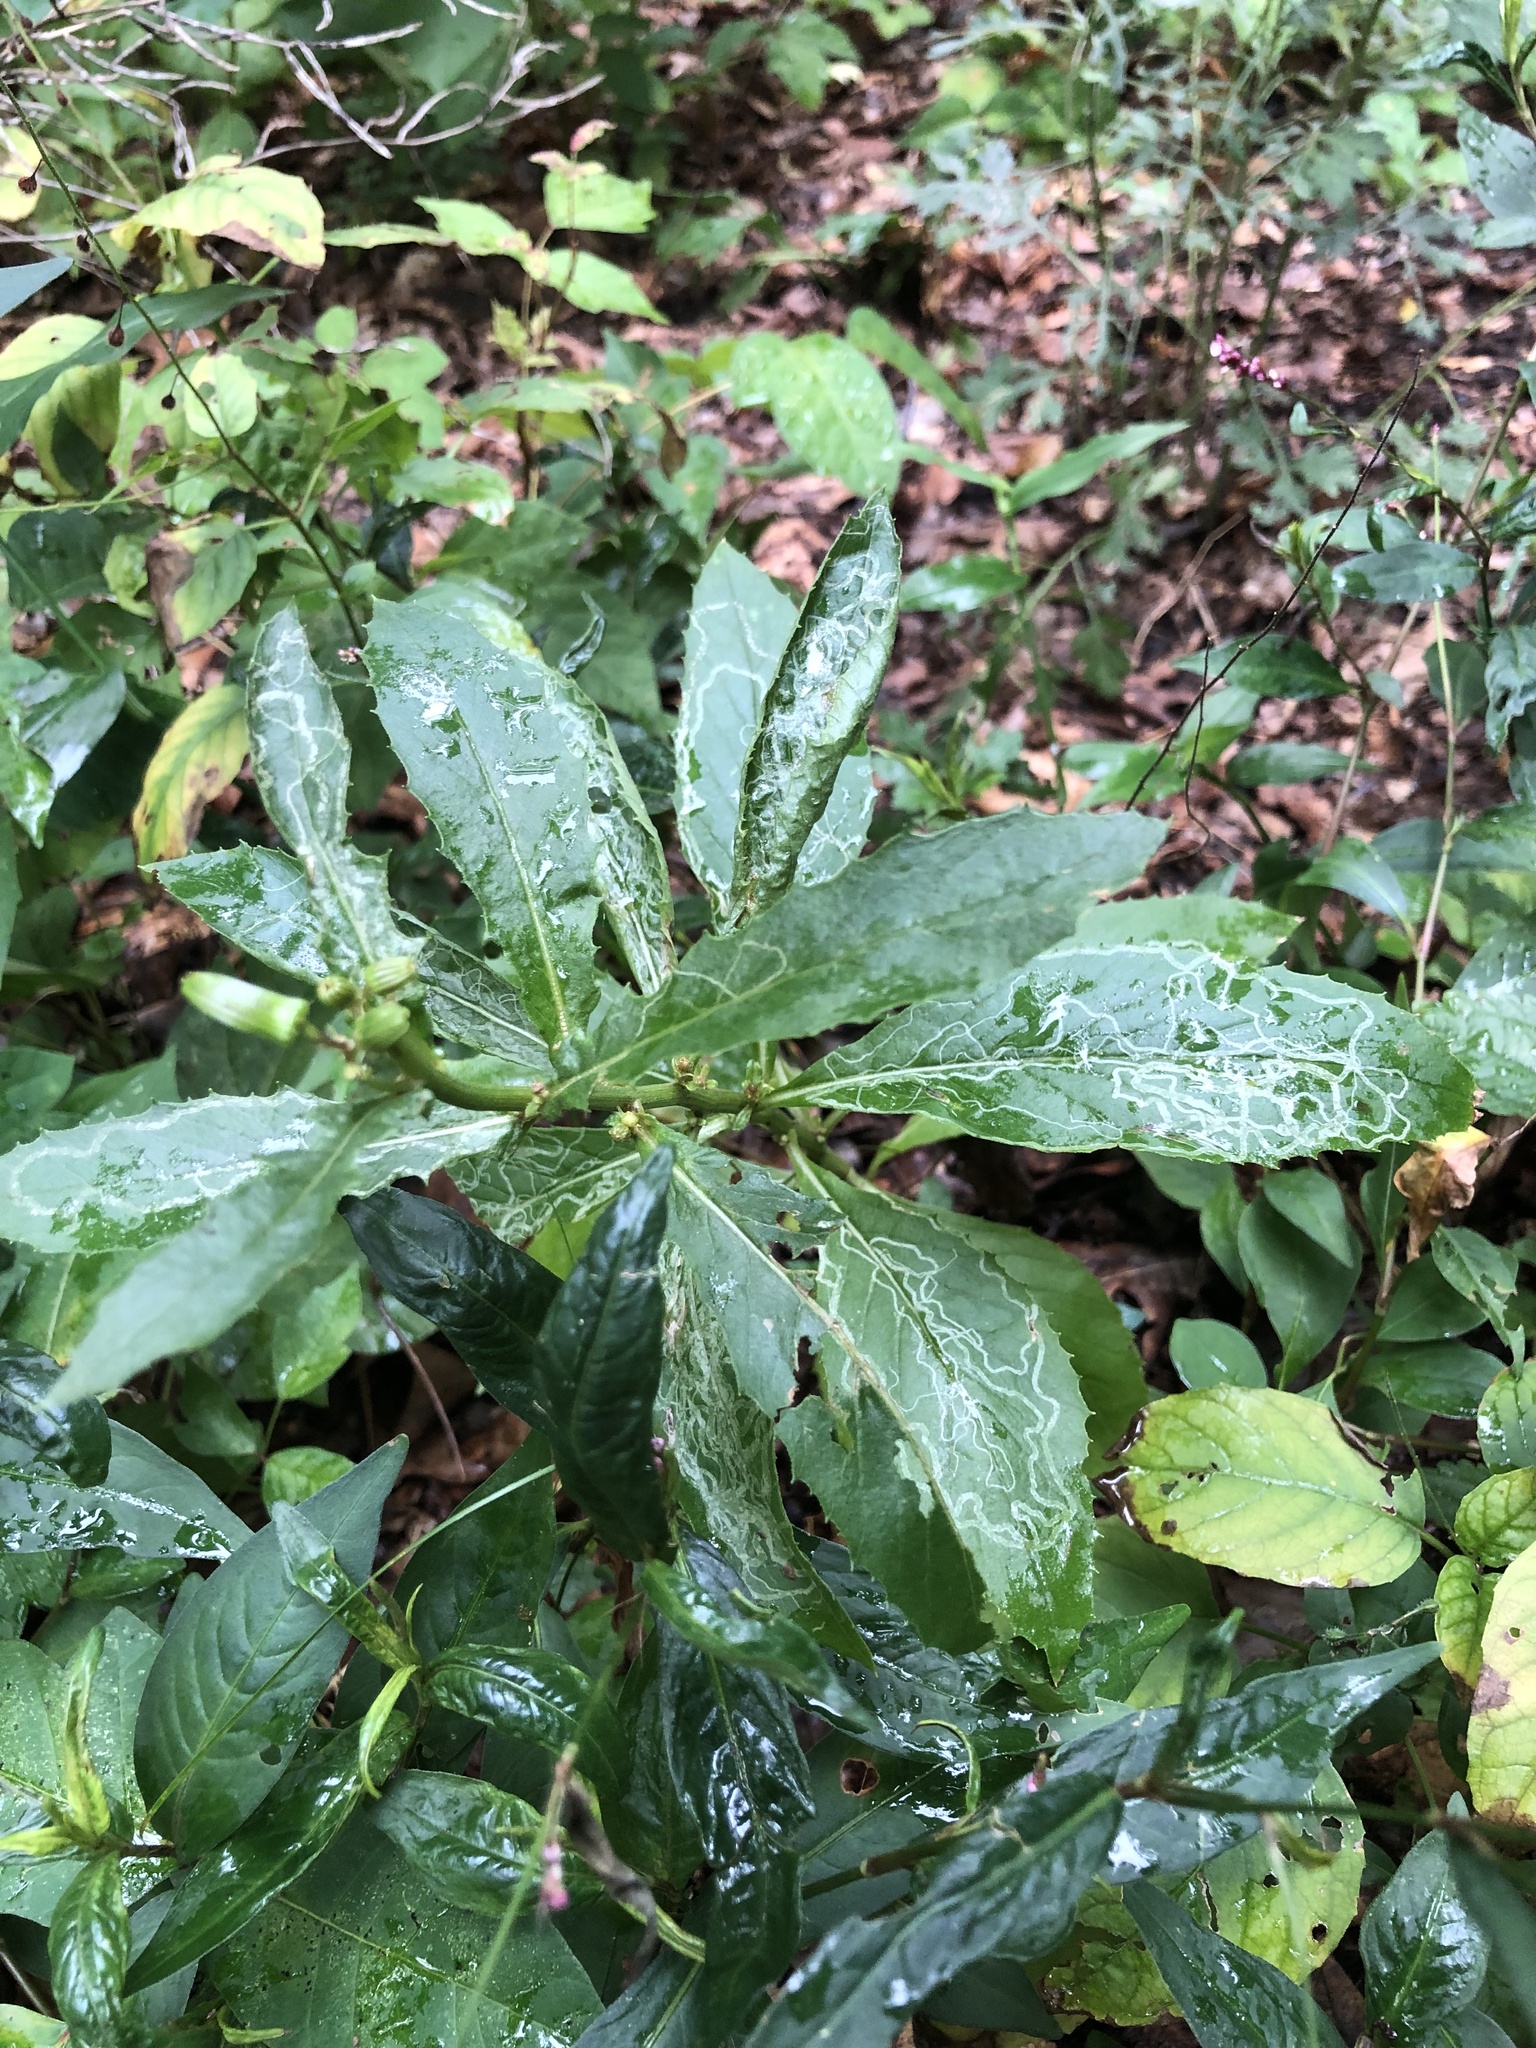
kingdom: Plantae
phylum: Tracheophyta
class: Magnoliopsida
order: Asterales
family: Asteraceae
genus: Erechtites
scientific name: Erechtites hieraciifolius
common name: American burnweed
